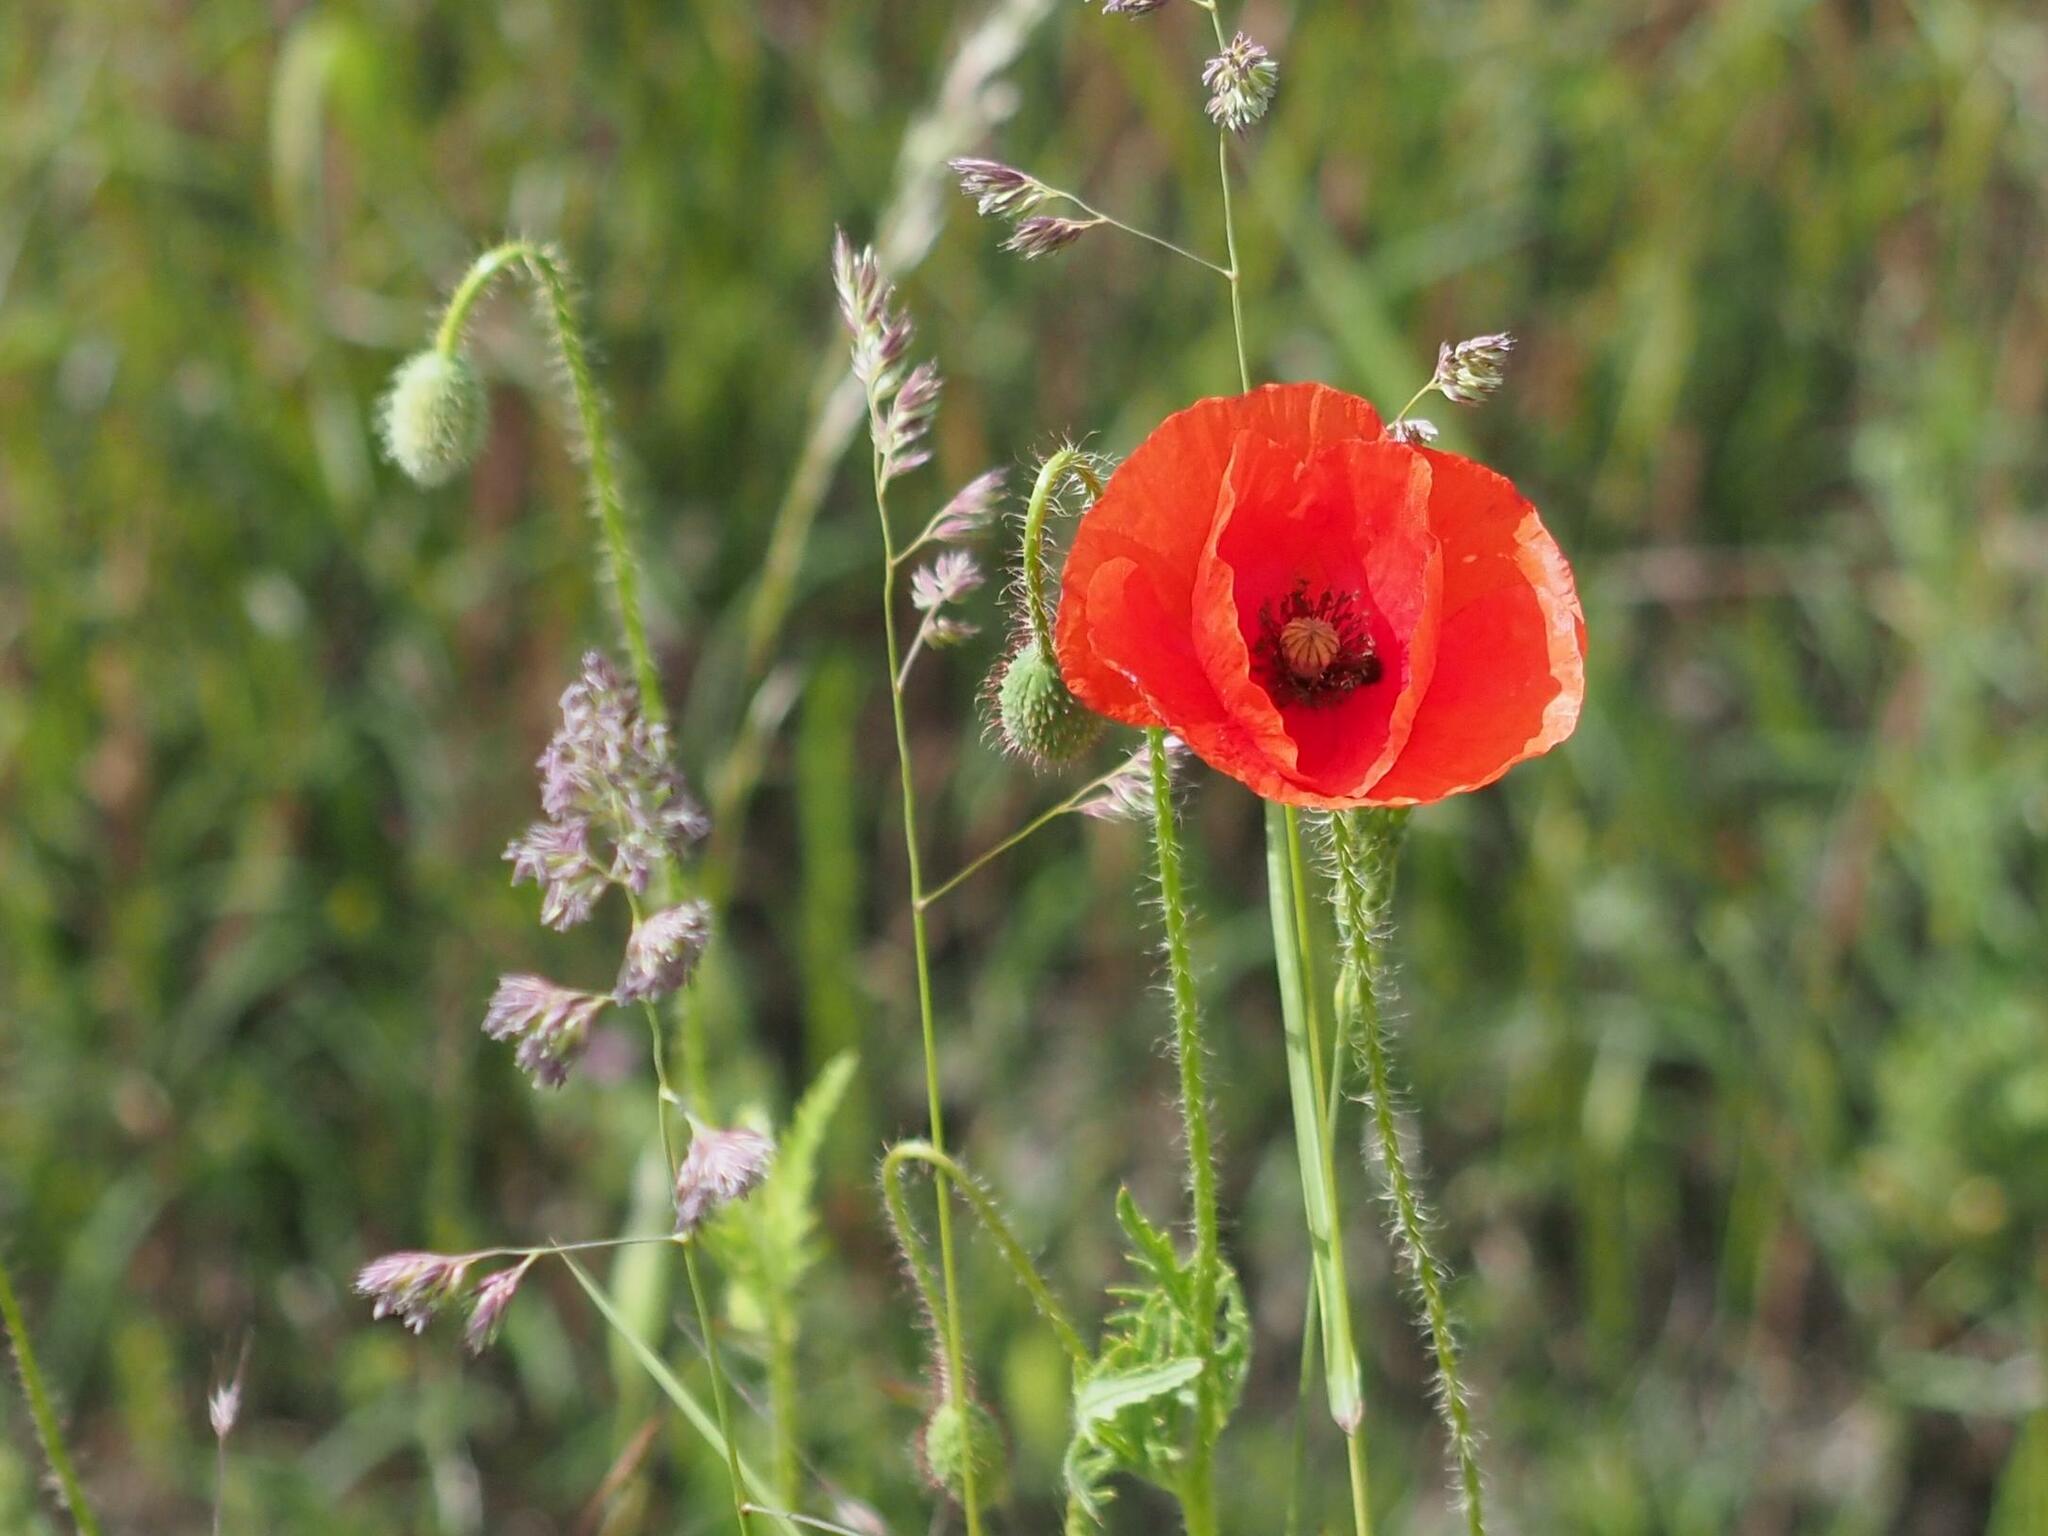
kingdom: Plantae
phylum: Tracheophyta
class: Magnoliopsida
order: Ranunculales
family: Papaveraceae
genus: Papaver
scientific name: Papaver rhoeas
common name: Corn poppy
